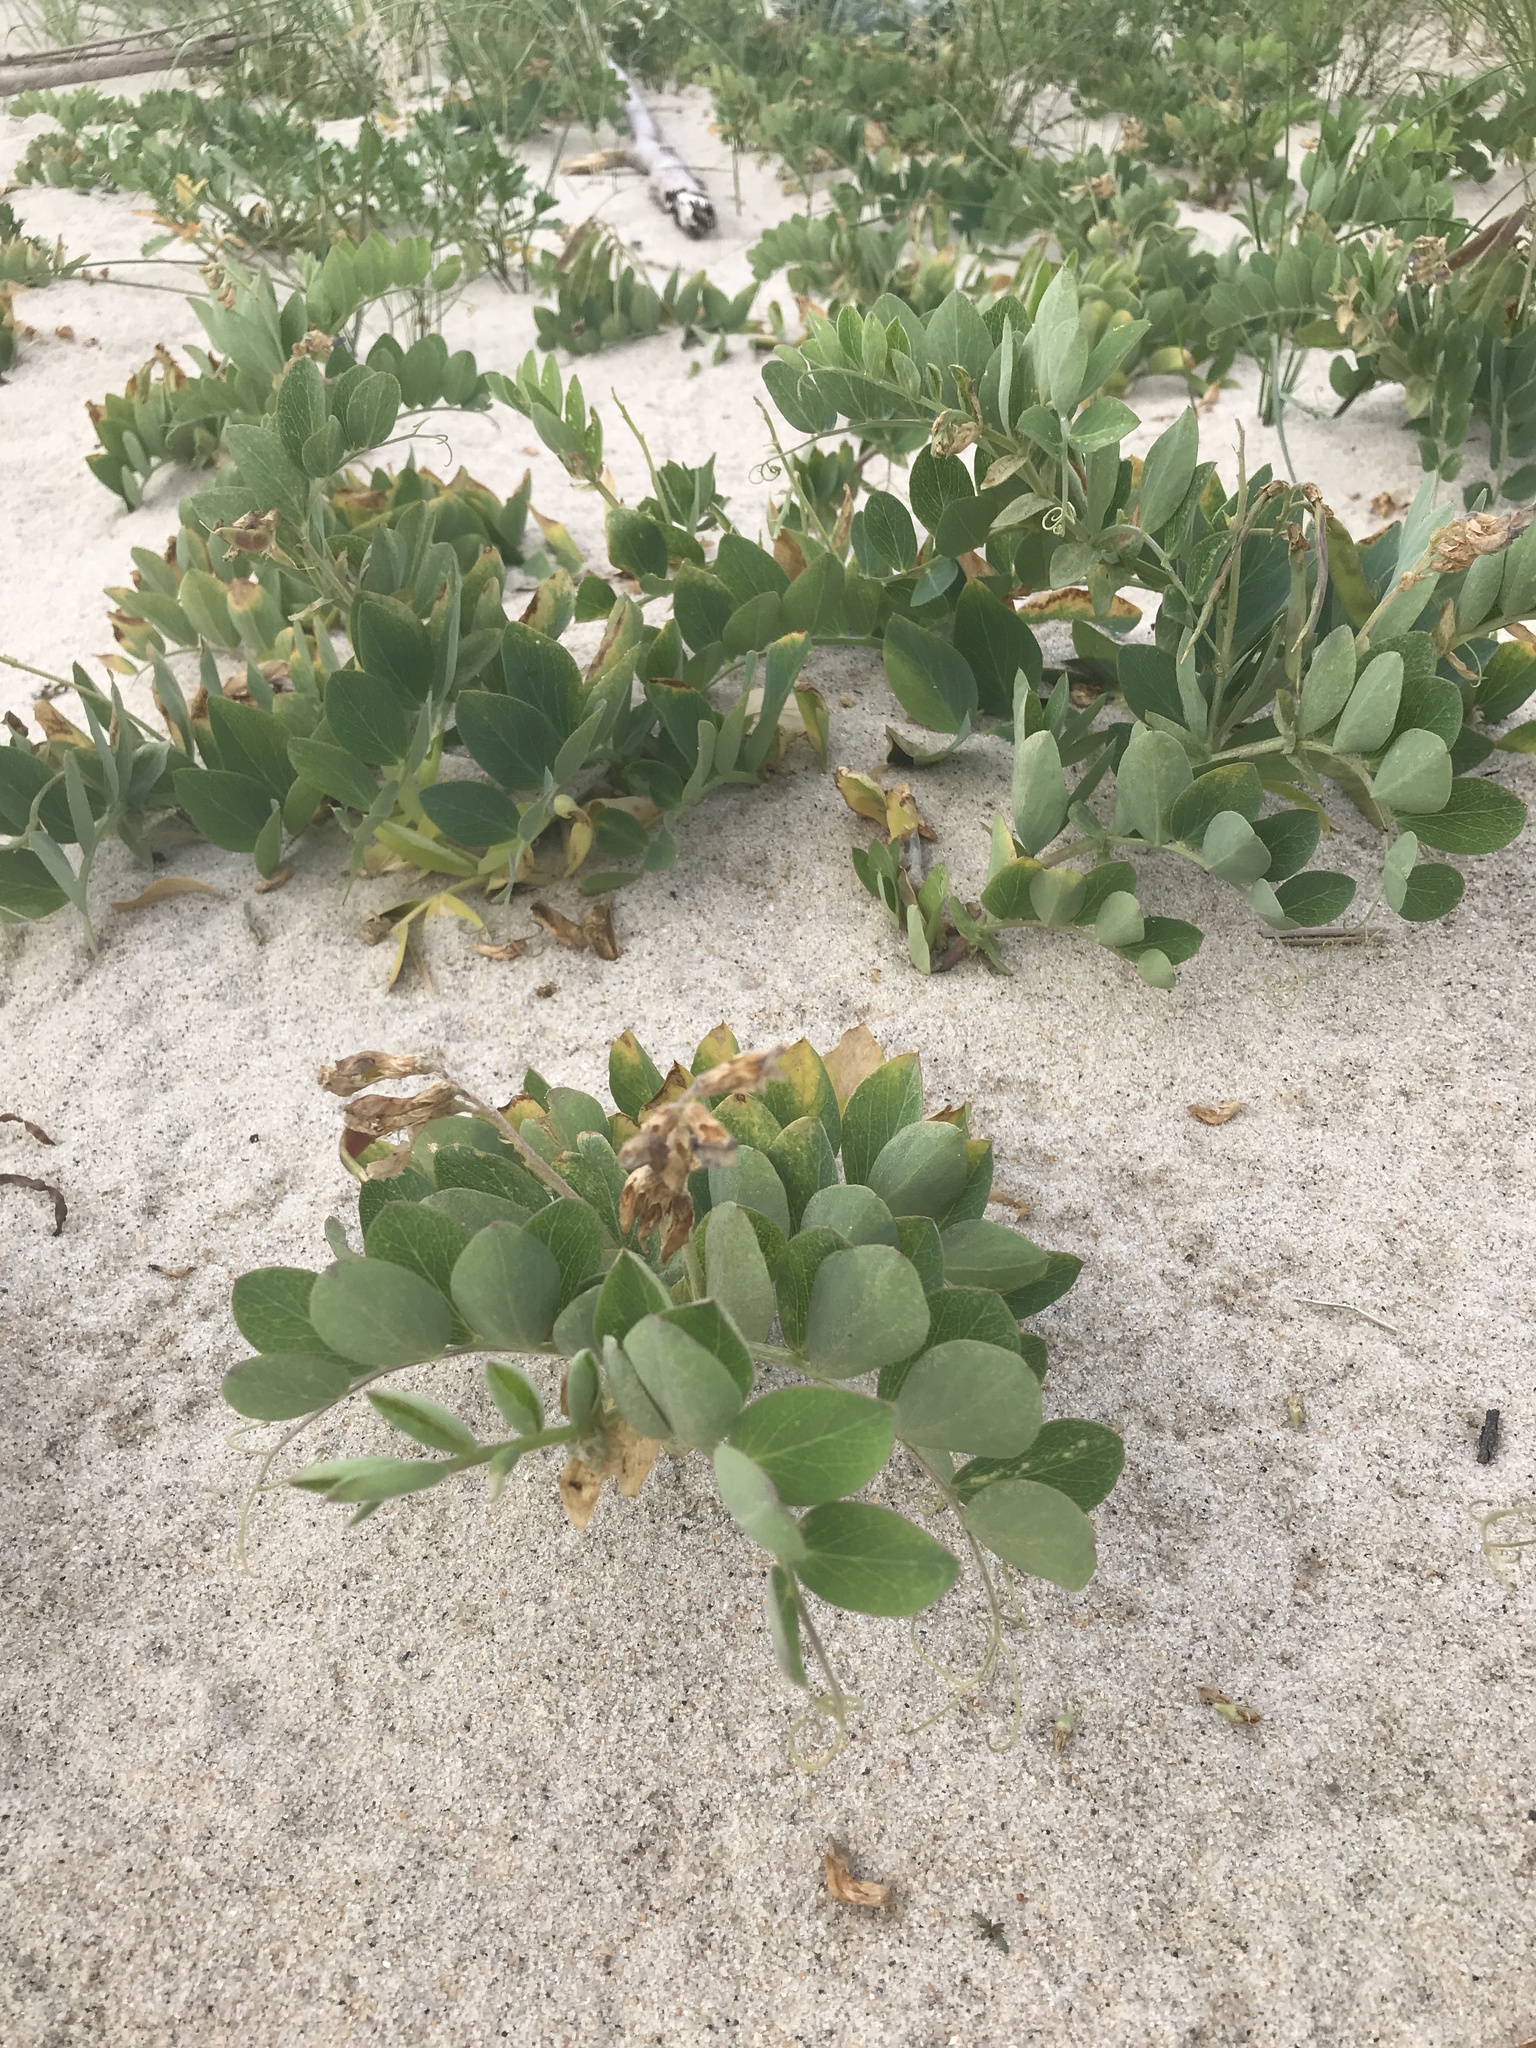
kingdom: Plantae
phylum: Tracheophyta
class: Magnoliopsida
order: Fabales
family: Fabaceae
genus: Lathyrus
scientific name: Lathyrus japonicus
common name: Sea pea
